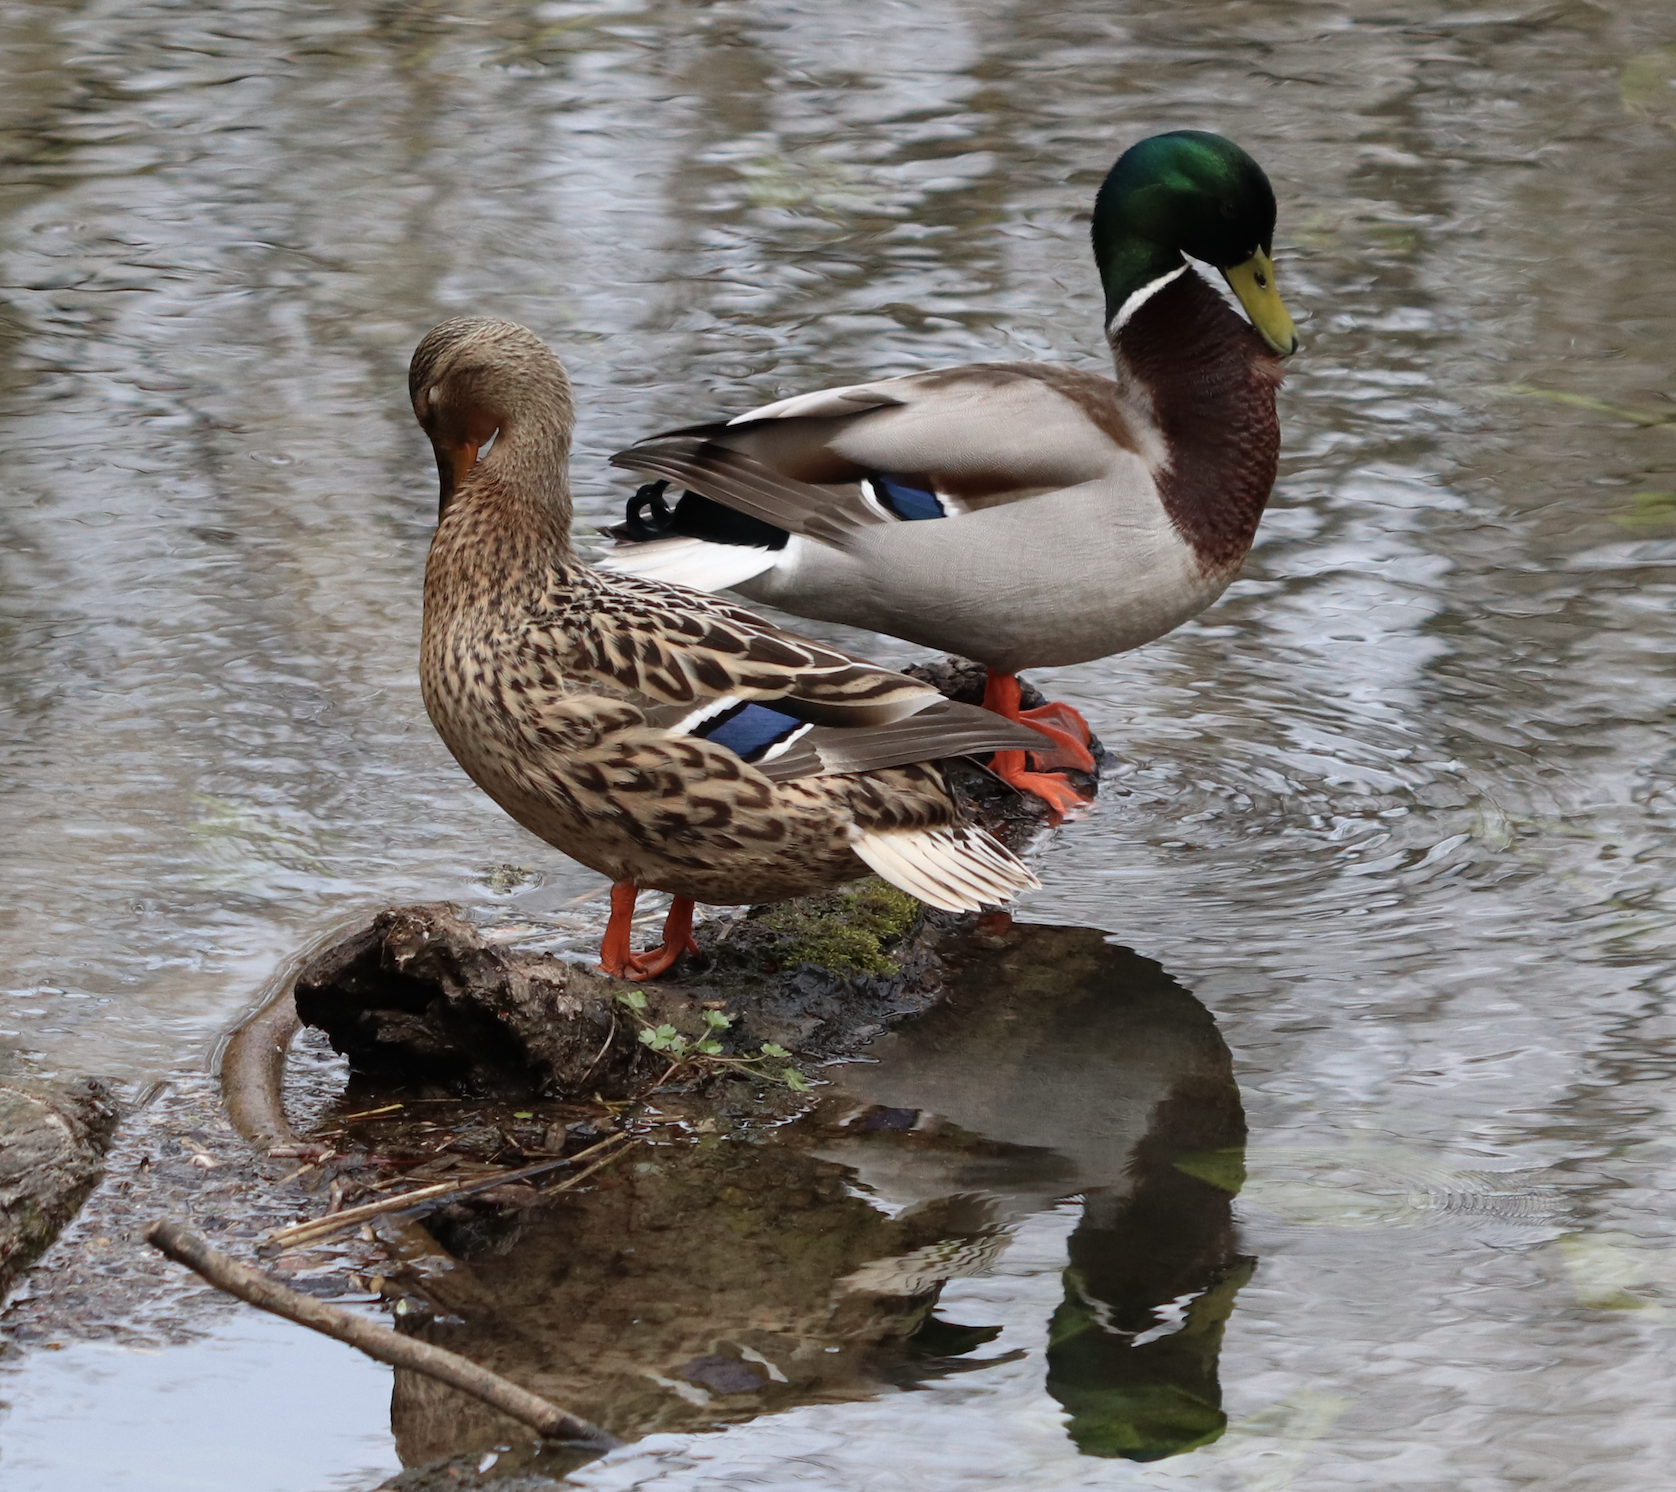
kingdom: Animalia
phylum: Chordata
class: Aves
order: Anseriformes
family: Anatidae
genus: Anas
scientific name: Anas platyrhynchos
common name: Mallard
